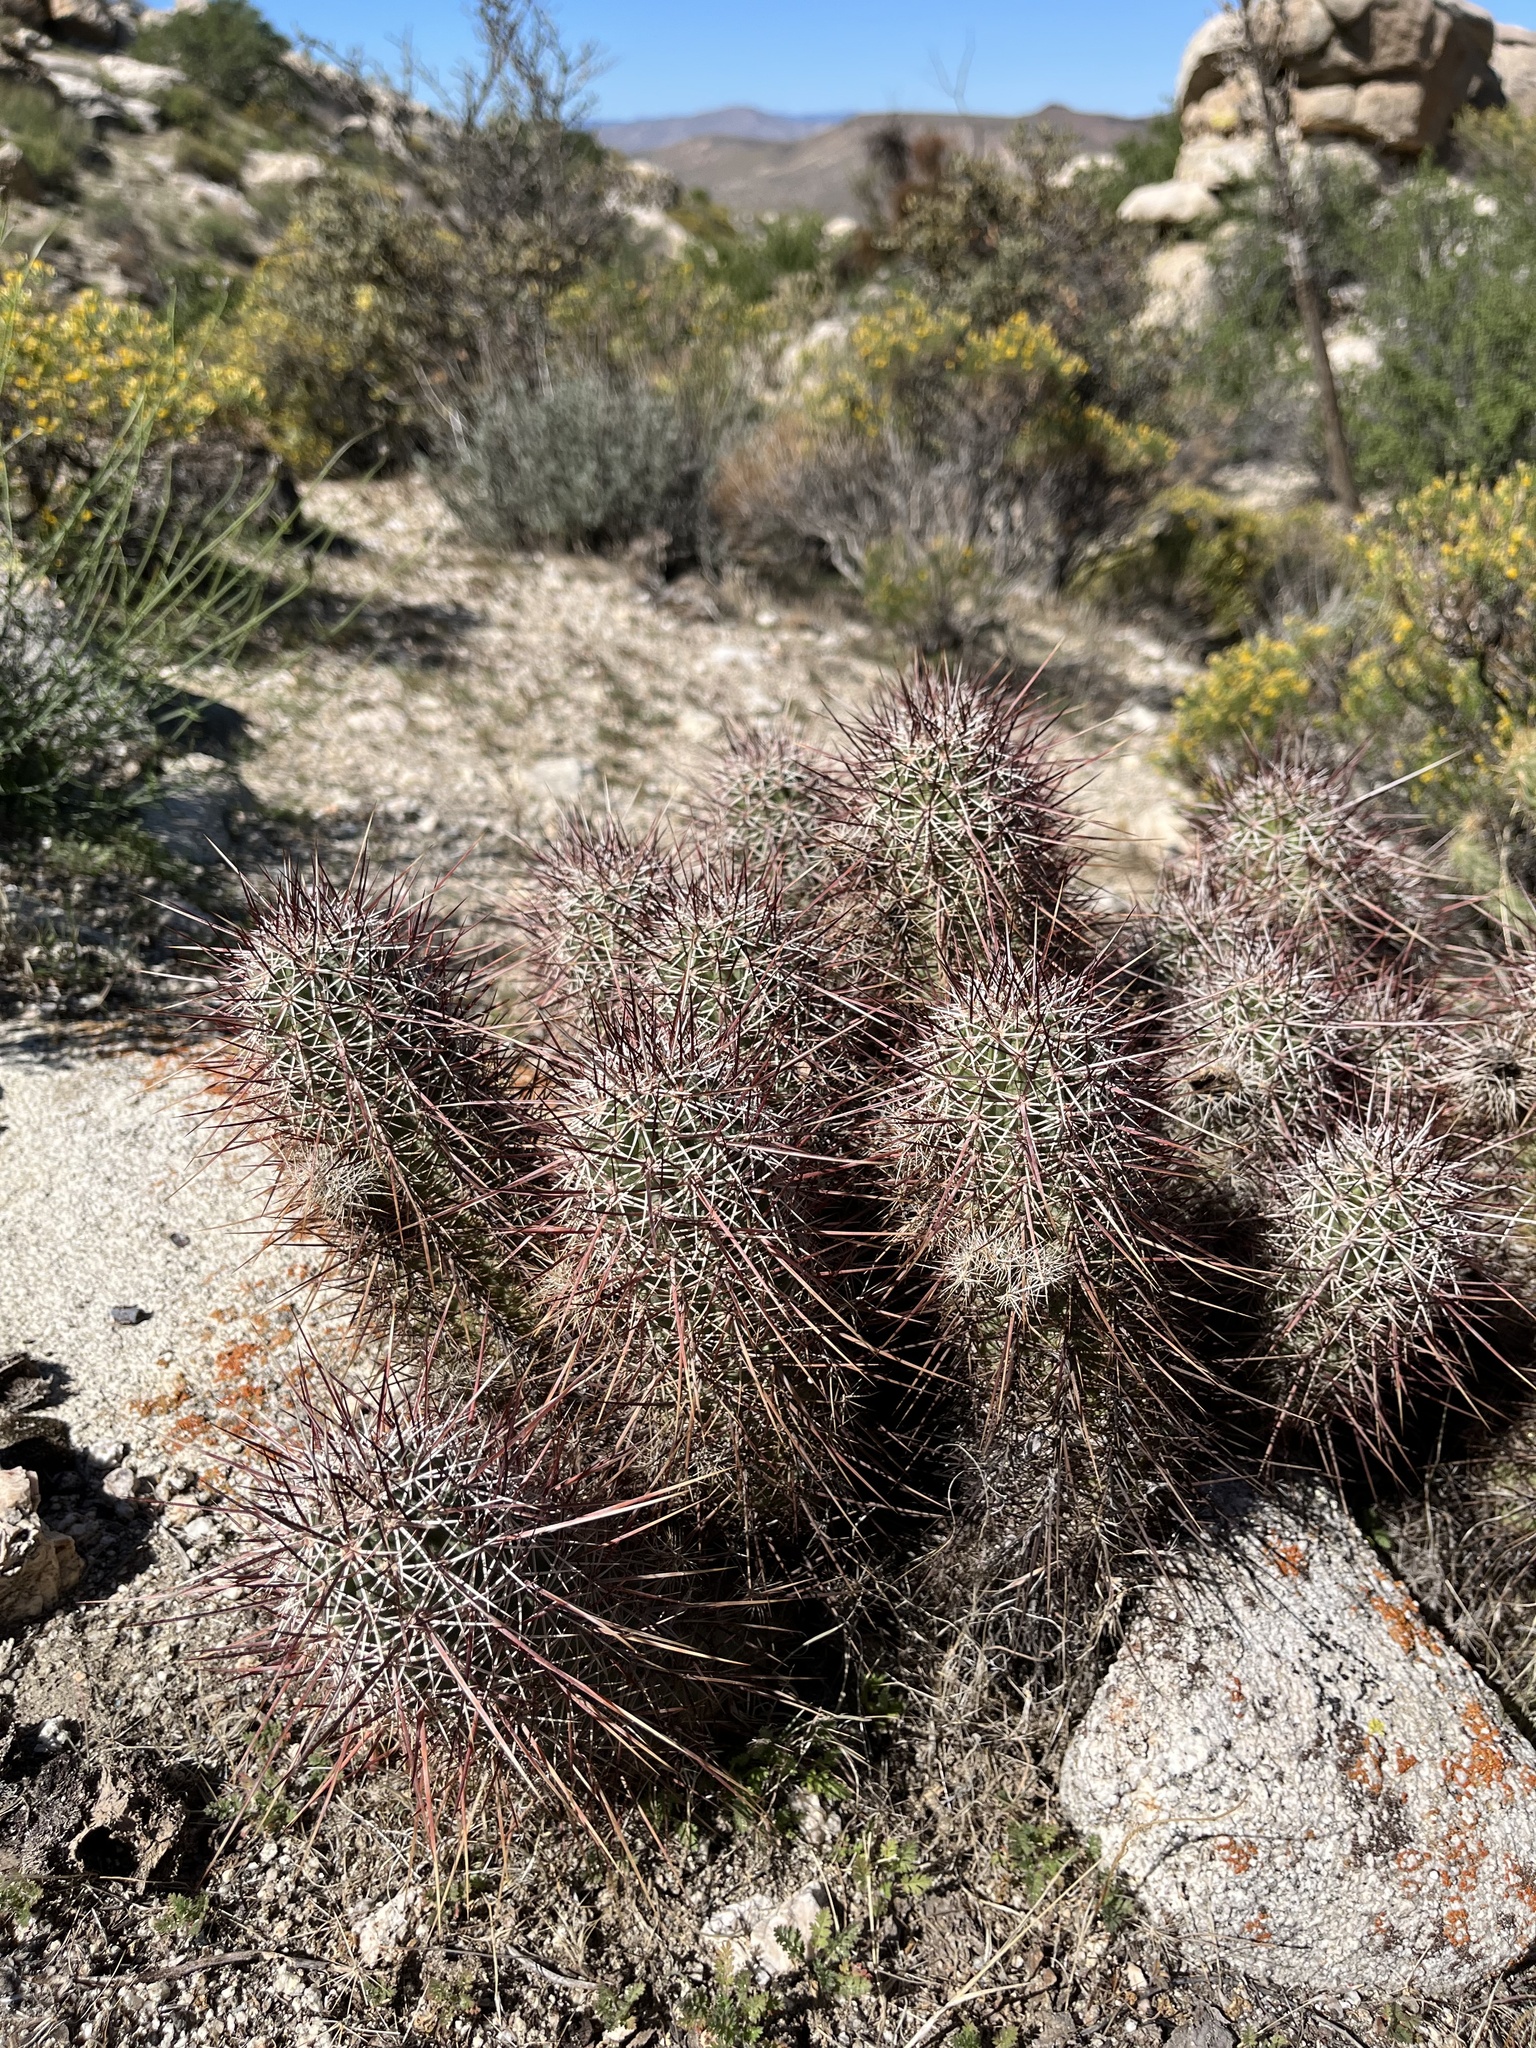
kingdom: Plantae
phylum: Tracheophyta
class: Magnoliopsida
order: Caryophyllales
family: Cactaceae
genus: Echinocereus
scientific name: Echinocereus engelmannii
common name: Engelmann's hedgehog cactus
